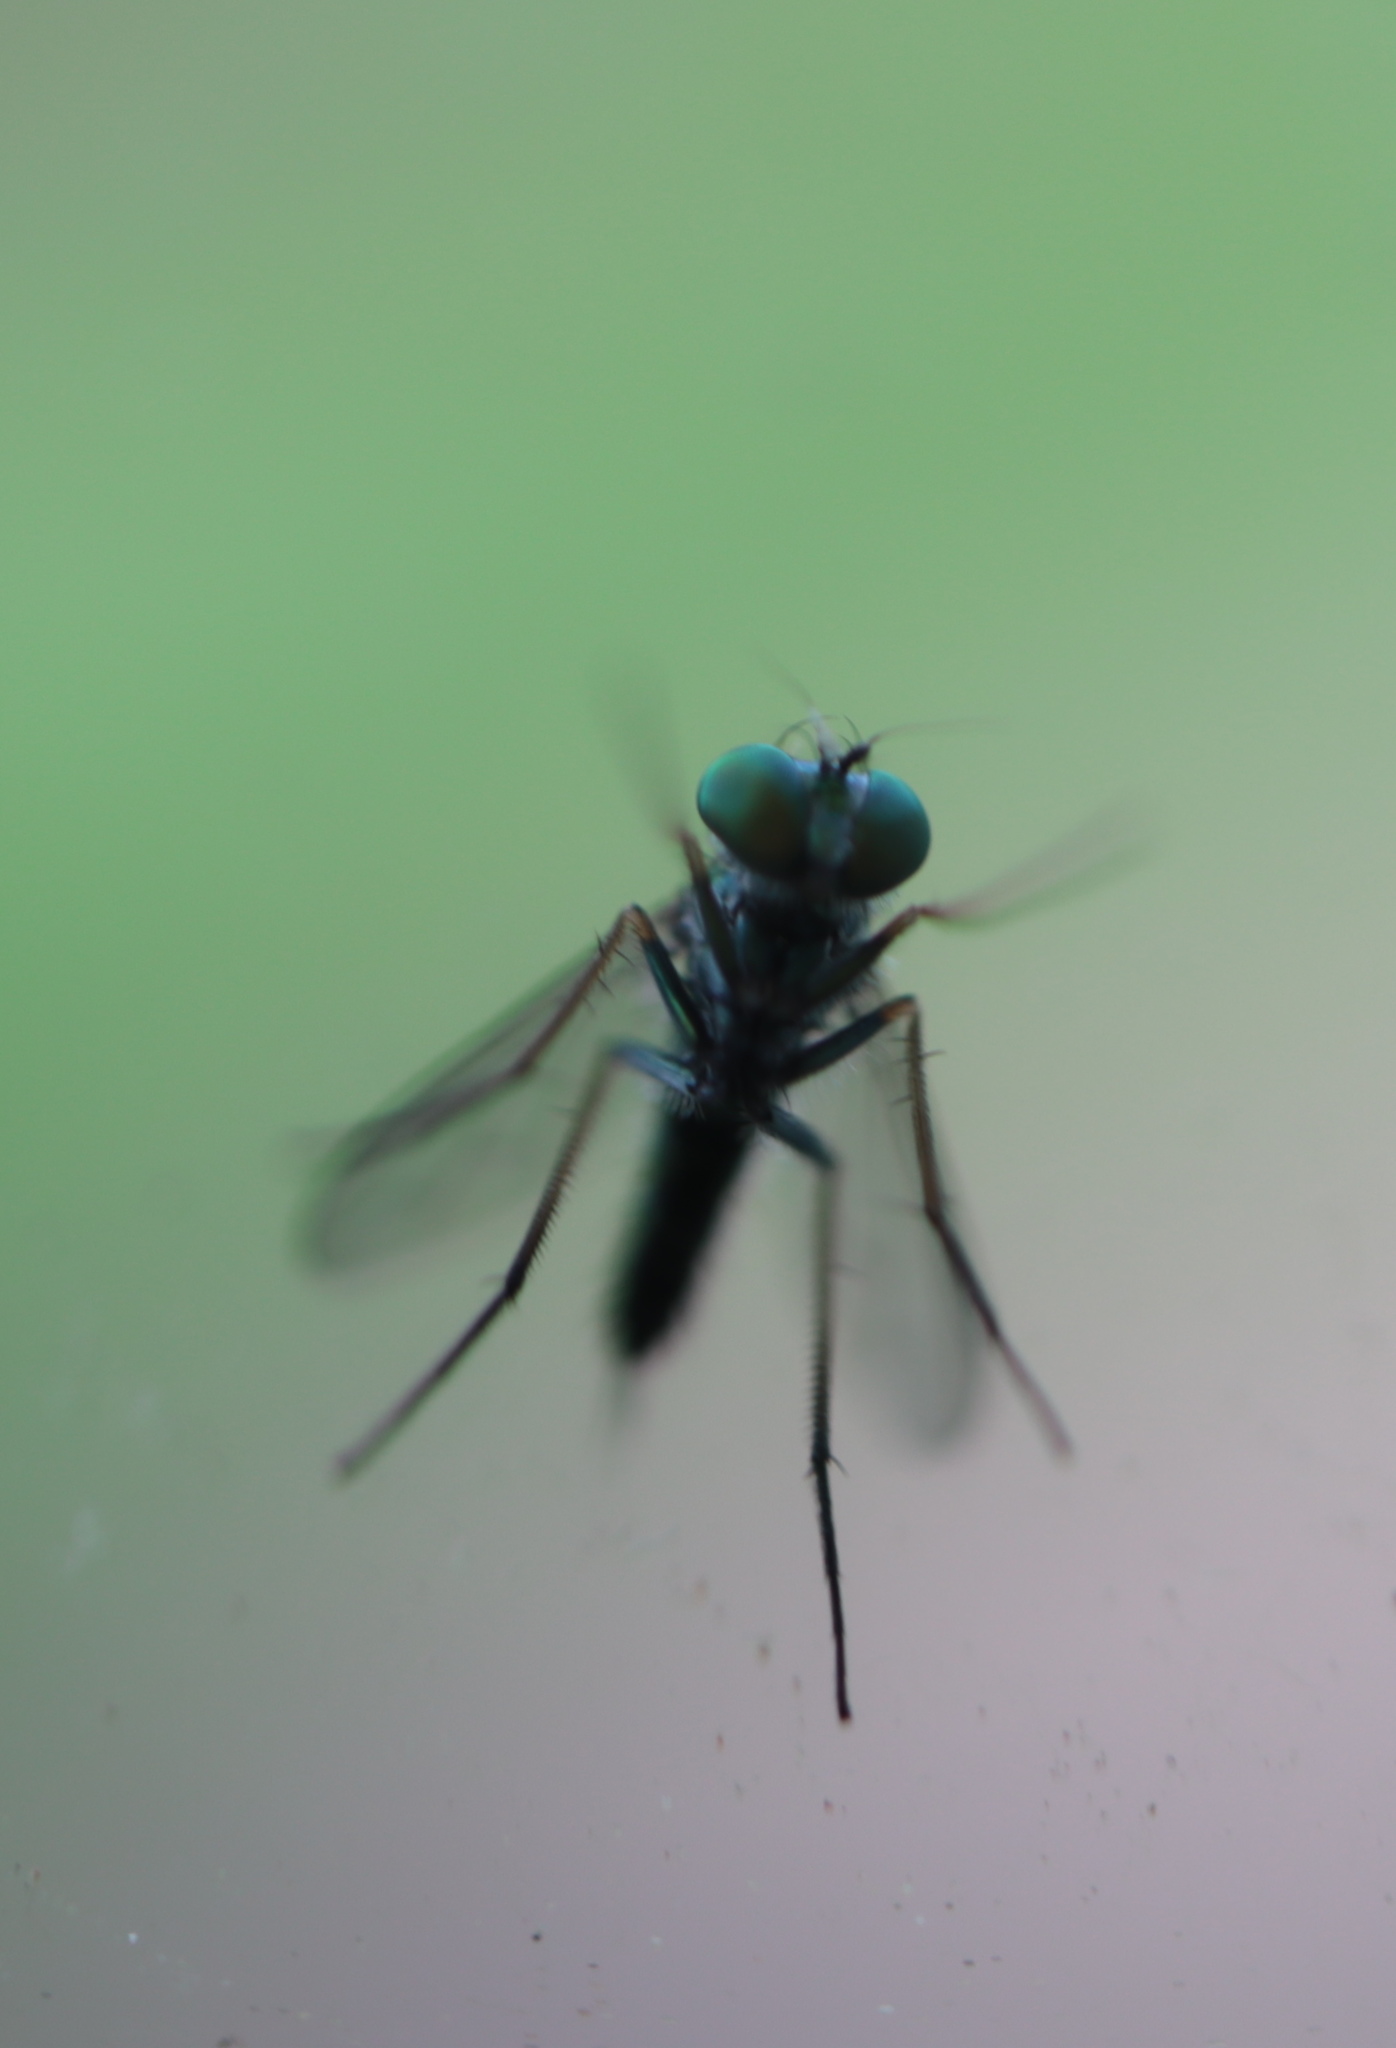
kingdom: Animalia
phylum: Arthropoda
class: Insecta
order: Diptera
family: Dolichopodidae
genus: Condylostylus
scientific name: Condylostylus caudatus
